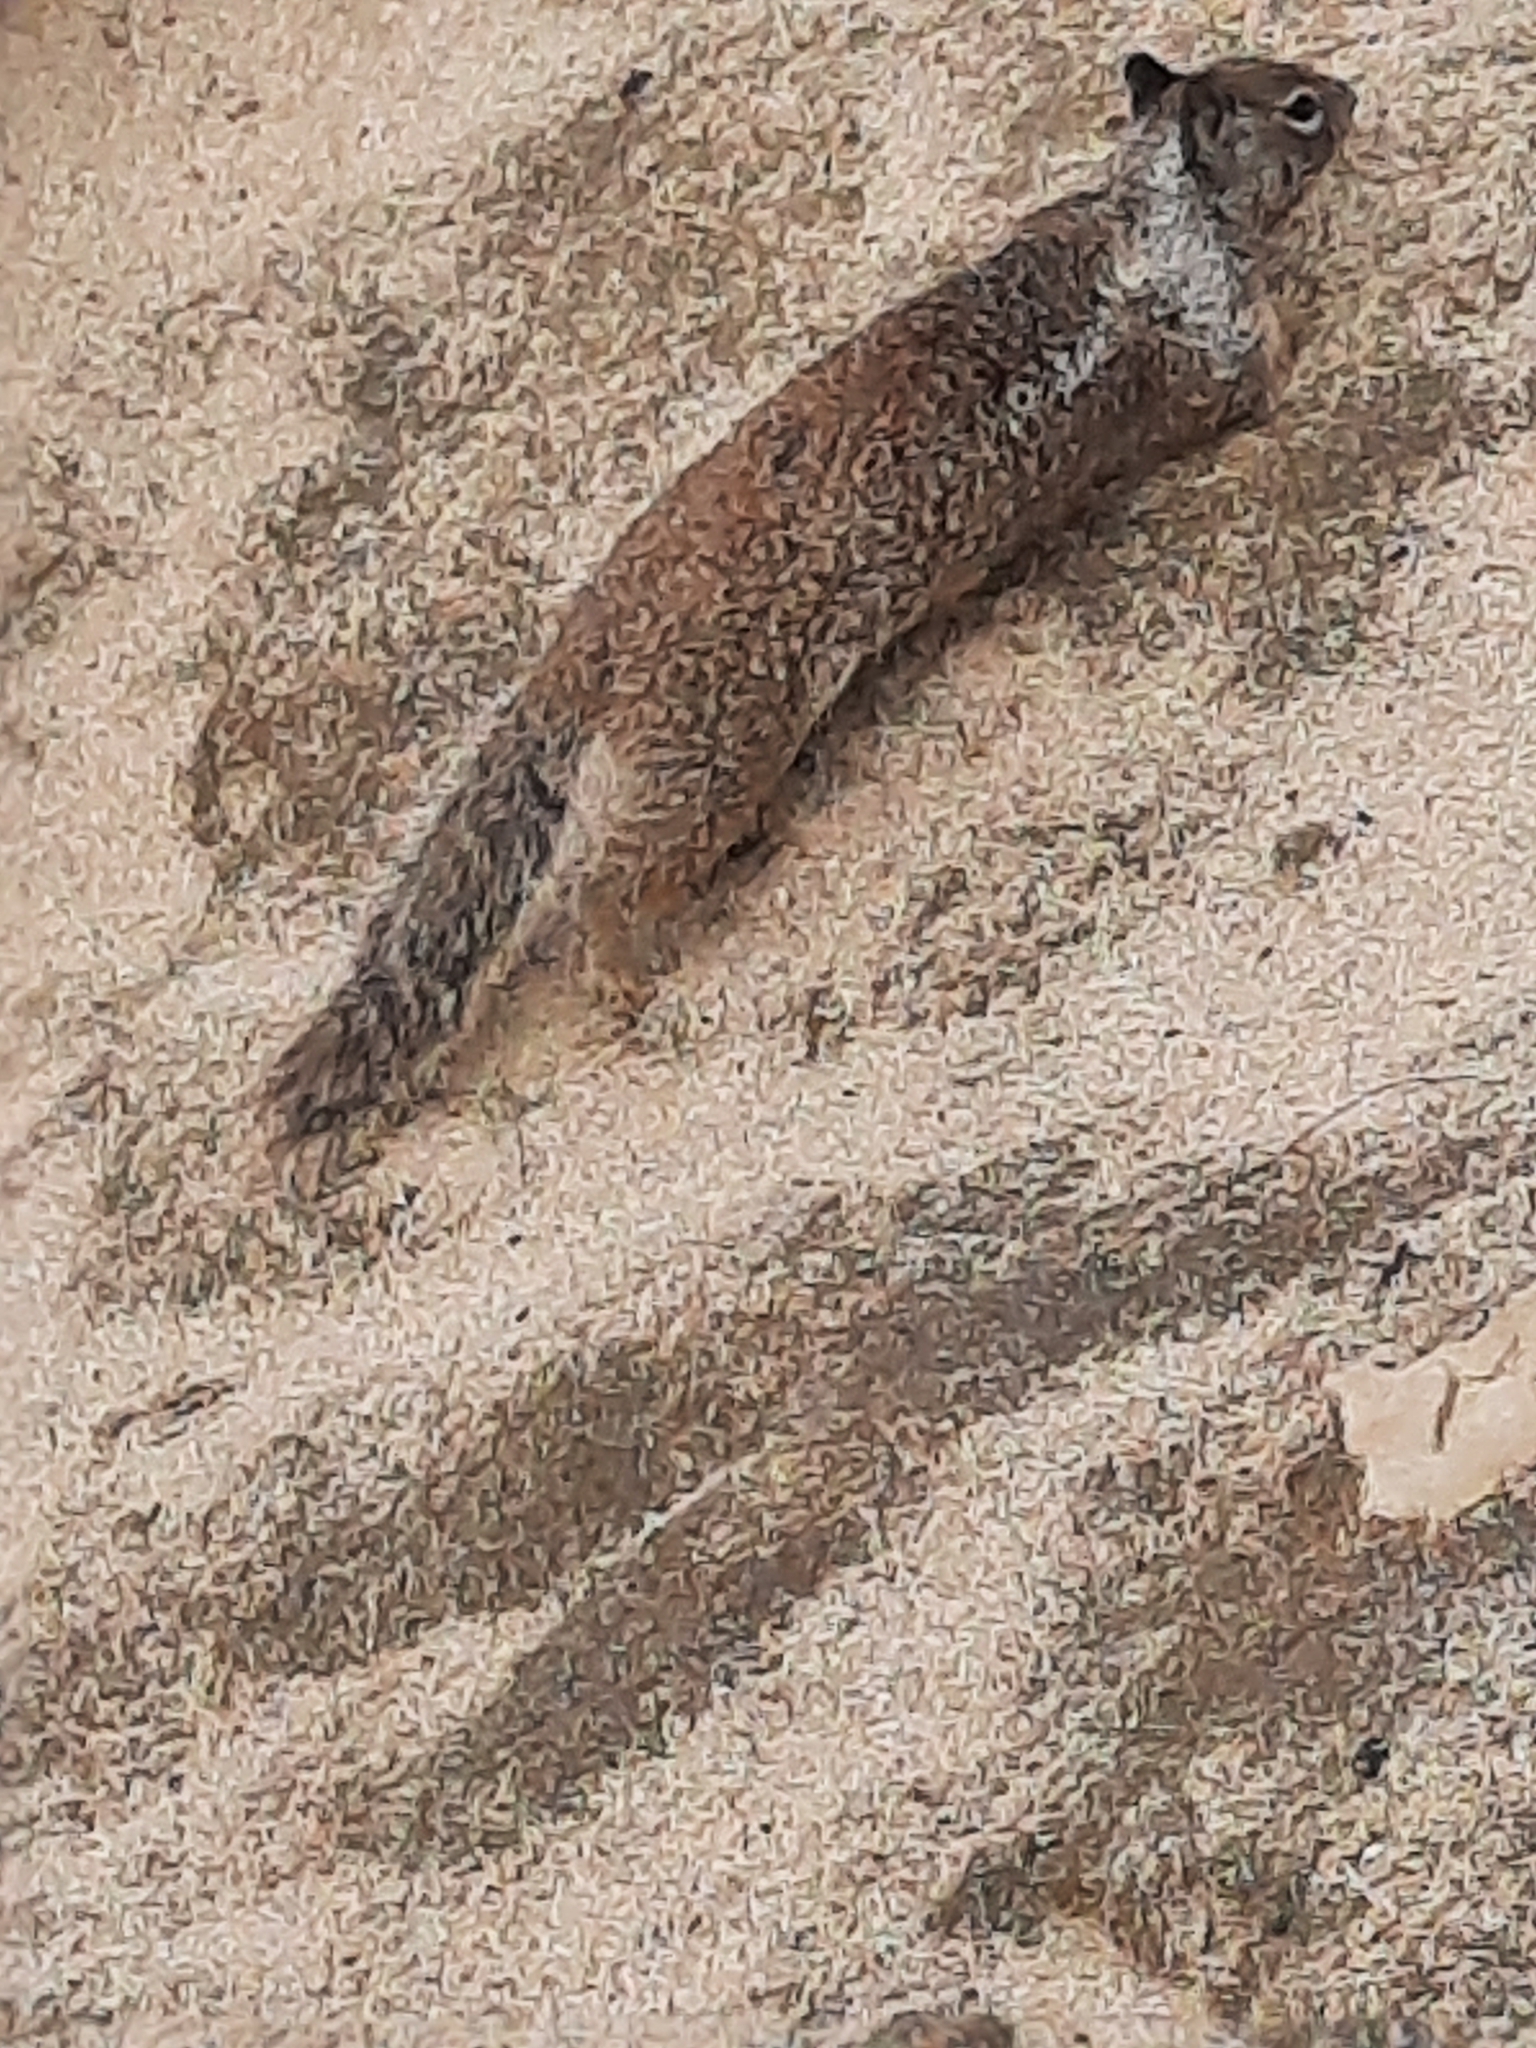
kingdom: Animalia
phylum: Chordata
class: Mammalia
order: Rodentia
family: Sciuridae
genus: Otospermophilus
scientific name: Otospermophilus beecheyi
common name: California ground squirrel
